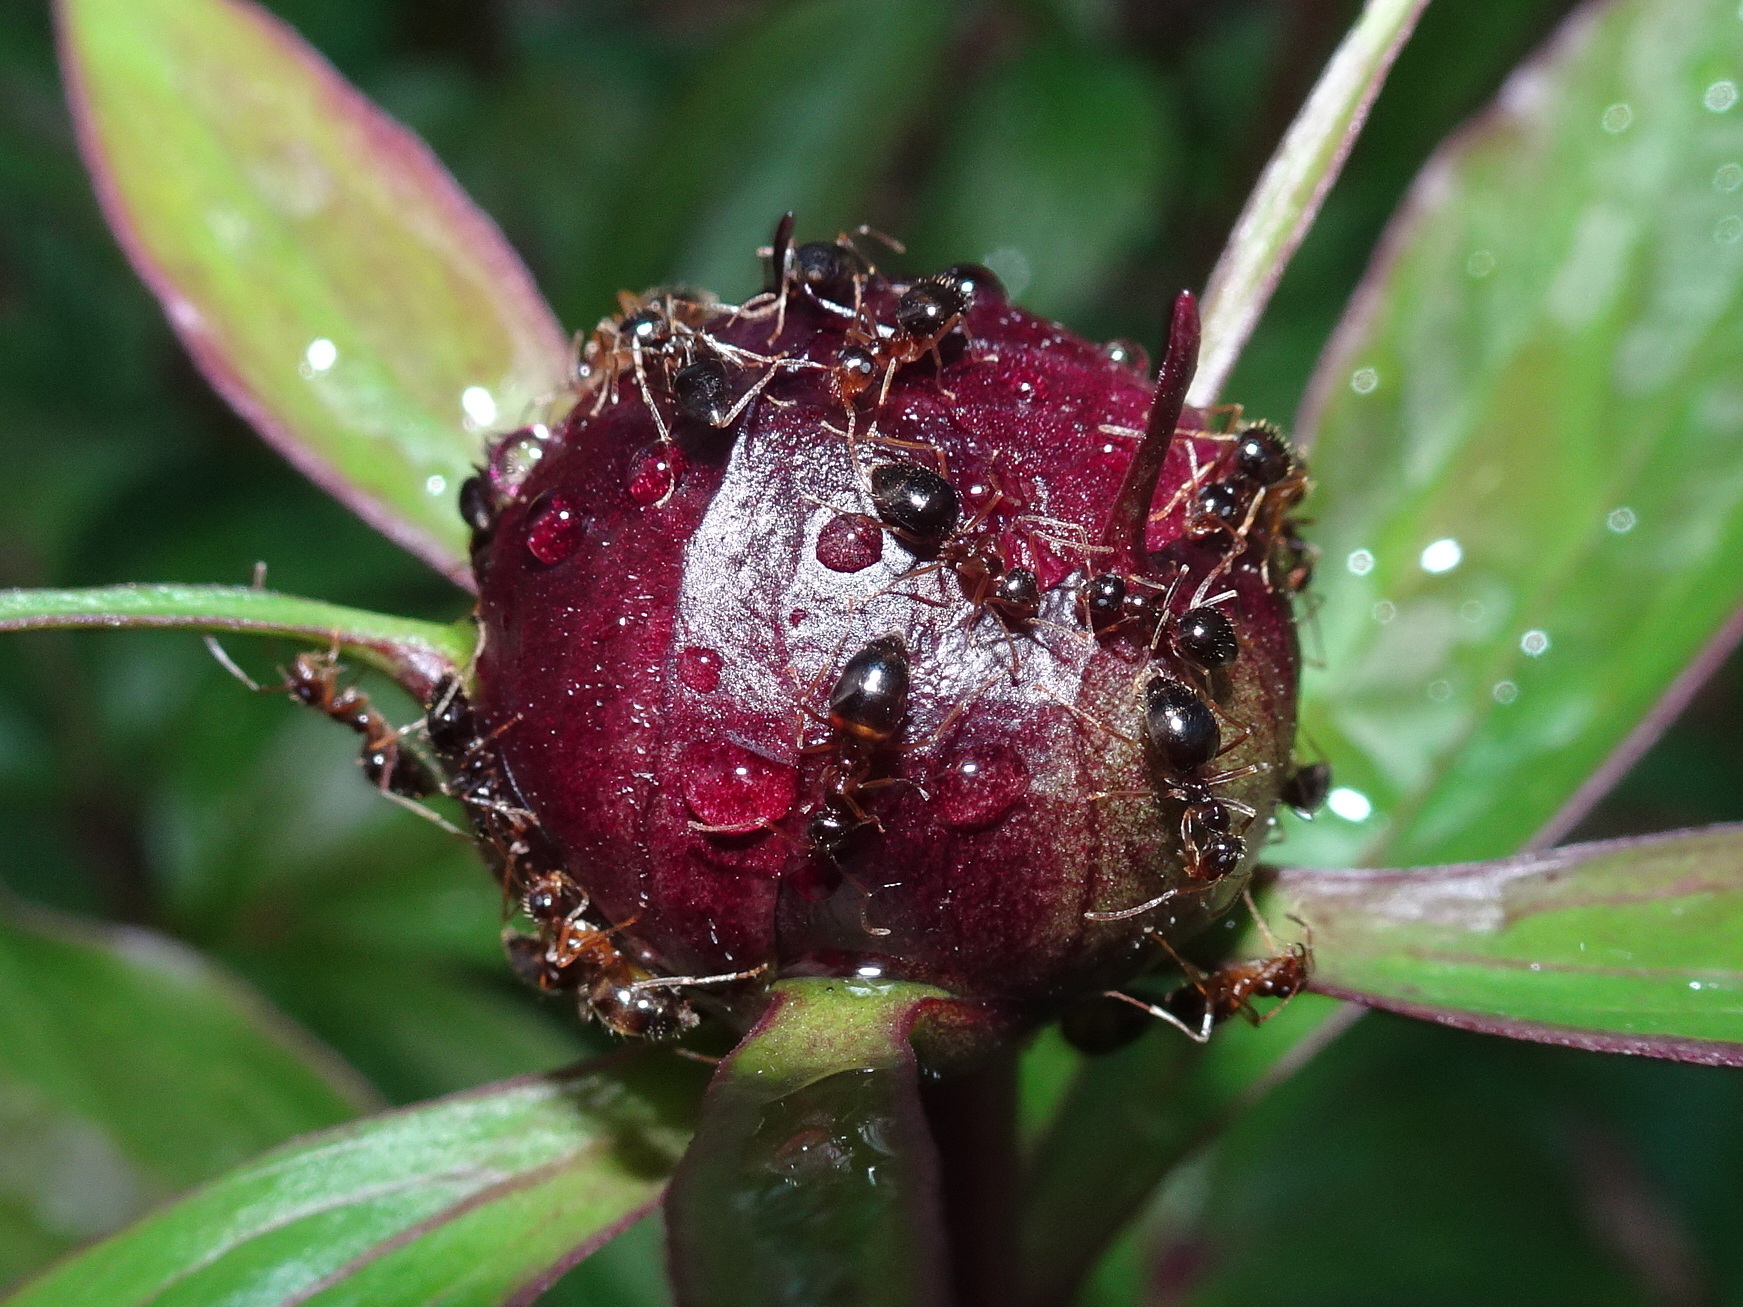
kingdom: Animalia
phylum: Arthropoda
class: Insecta
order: Hymenoptera
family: Formicidae
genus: Prenolepis
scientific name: Prenolepis imparis
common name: Small honey ant
